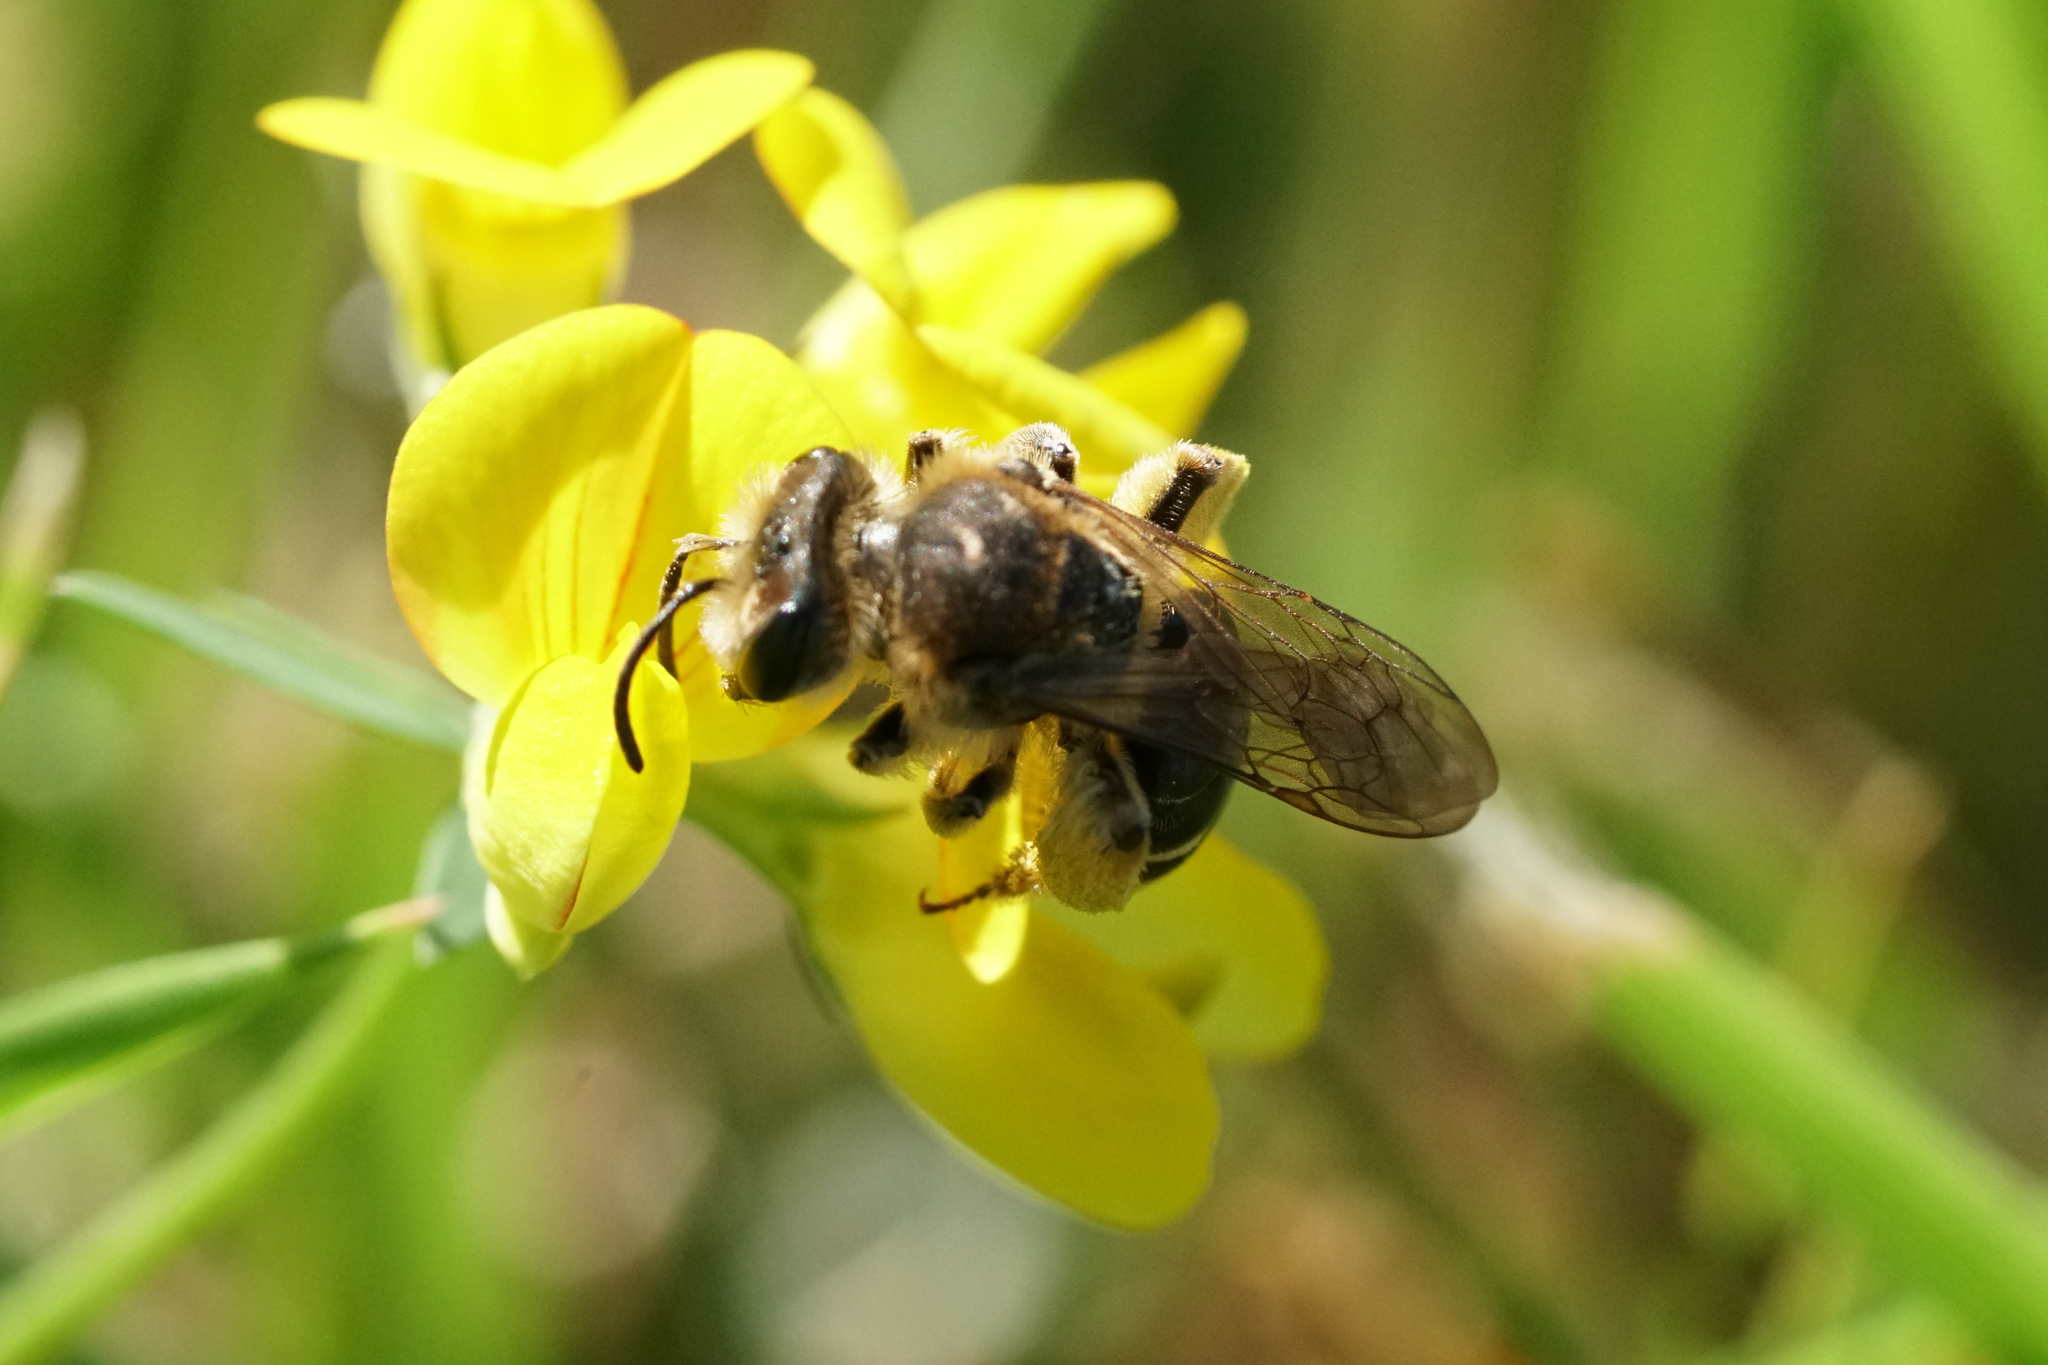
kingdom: Animalia
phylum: Arthropoda
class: Insecta
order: Hymenoptera
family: Andrenidae
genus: Andrena
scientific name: Andrena wilkella
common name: Wilke's mining bee
